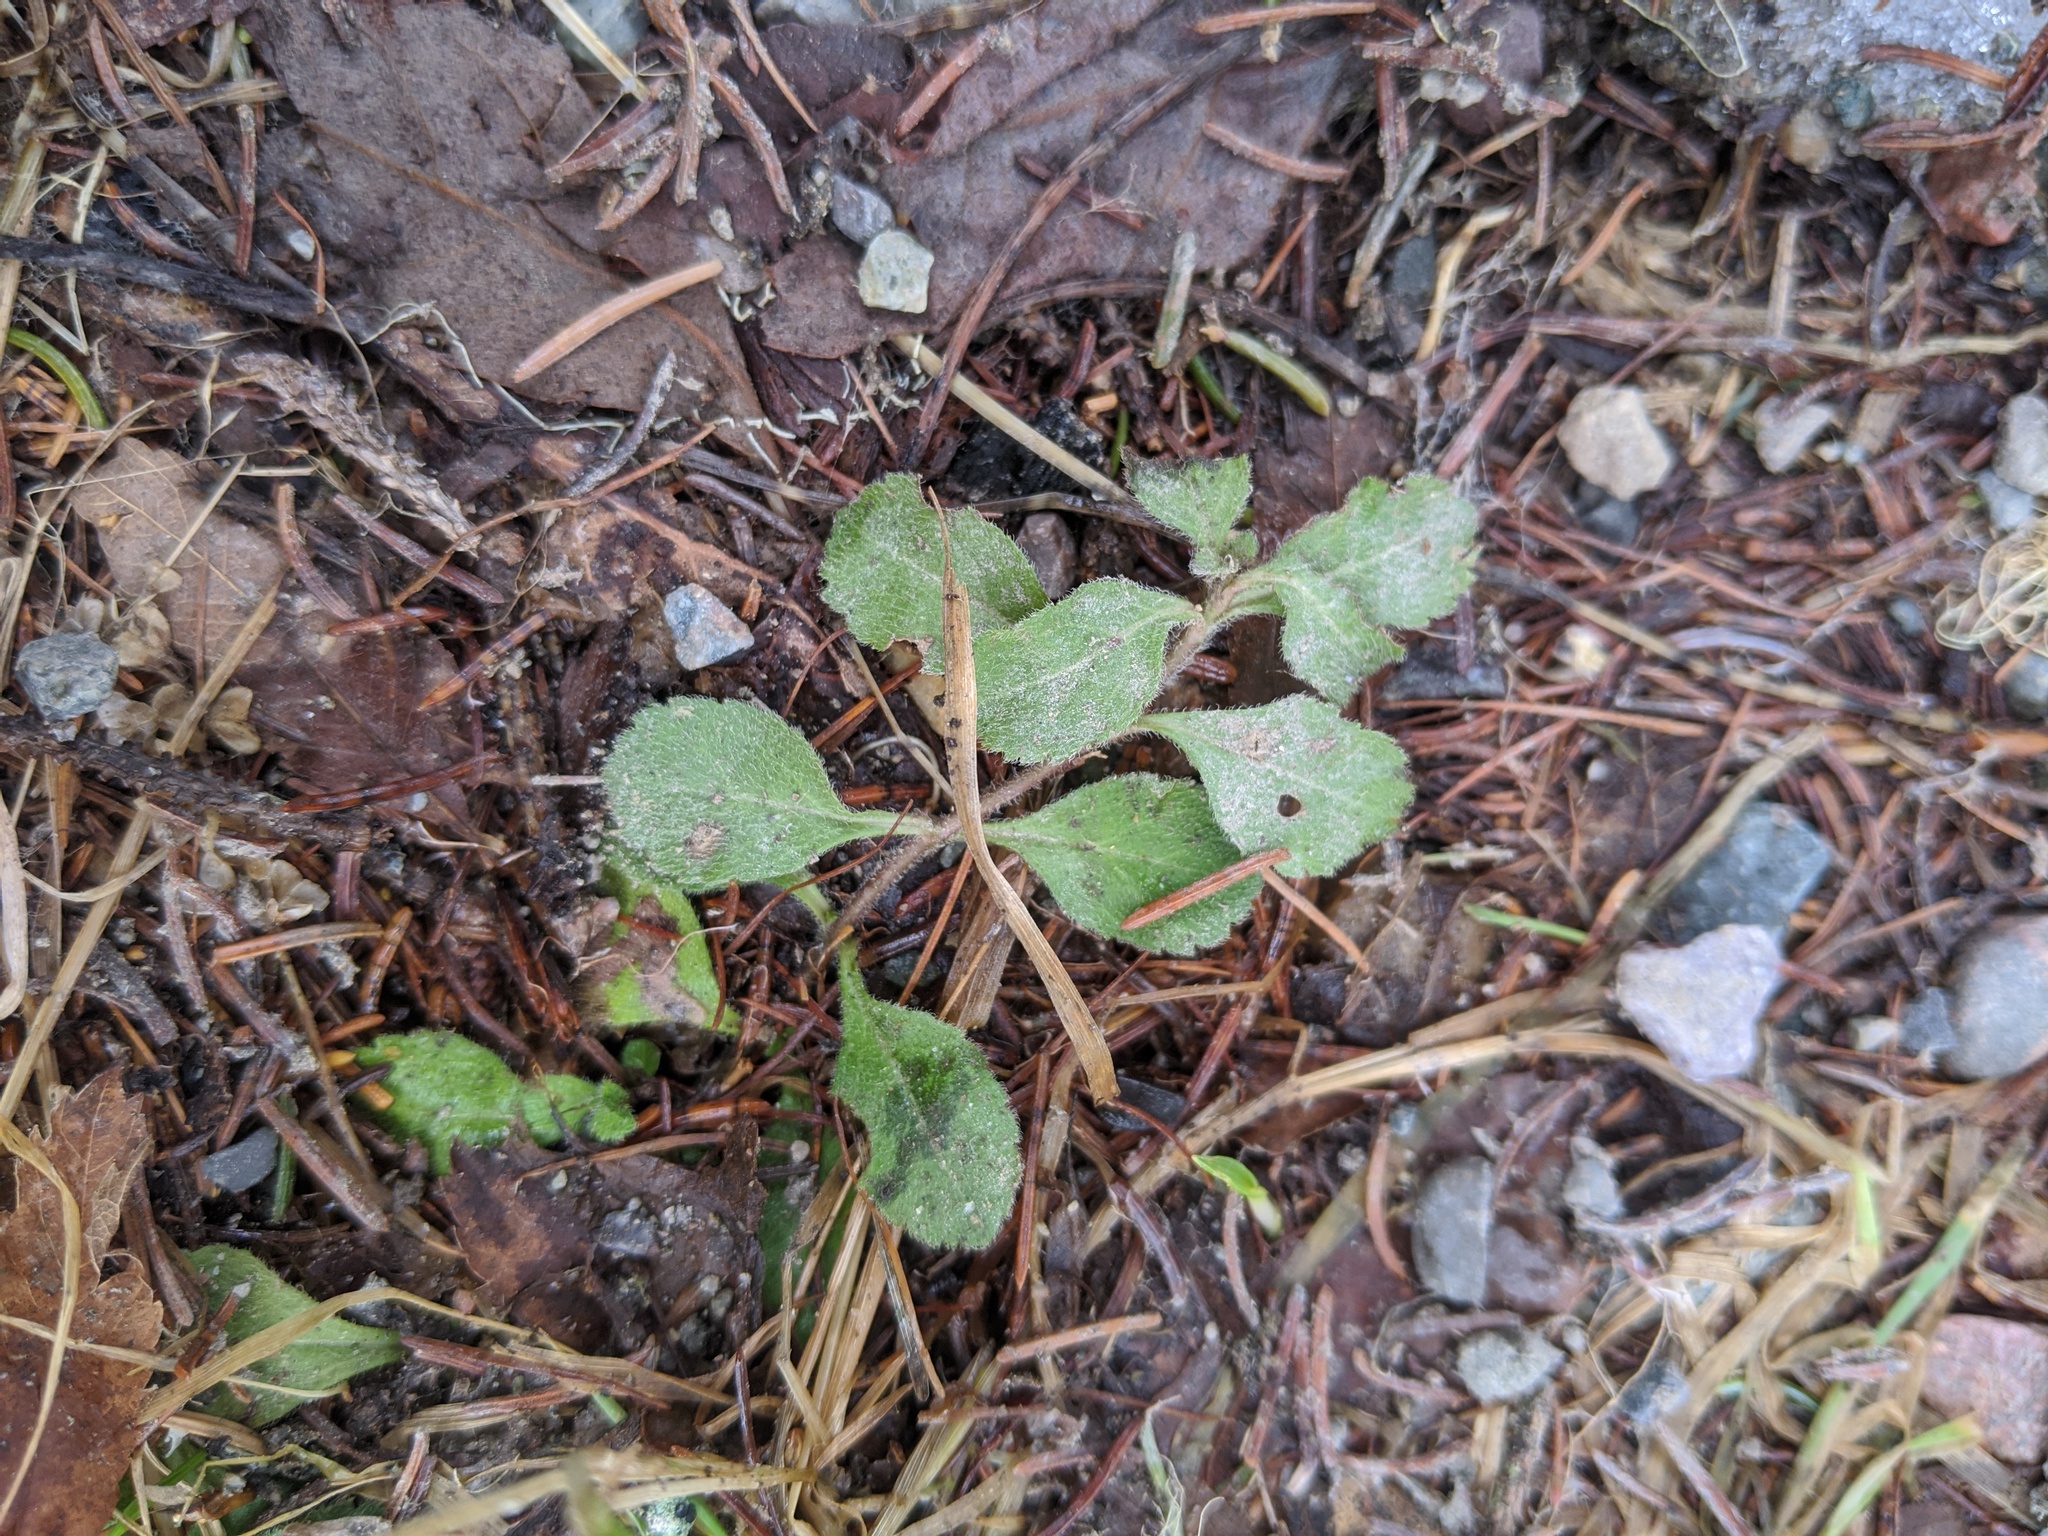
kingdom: Plantae
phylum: Tracheophyta
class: Magnoliopsida
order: Dipsacales
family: Caprifoliaceae
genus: Linnaea
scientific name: Linnaea borealis
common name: Twinflower
